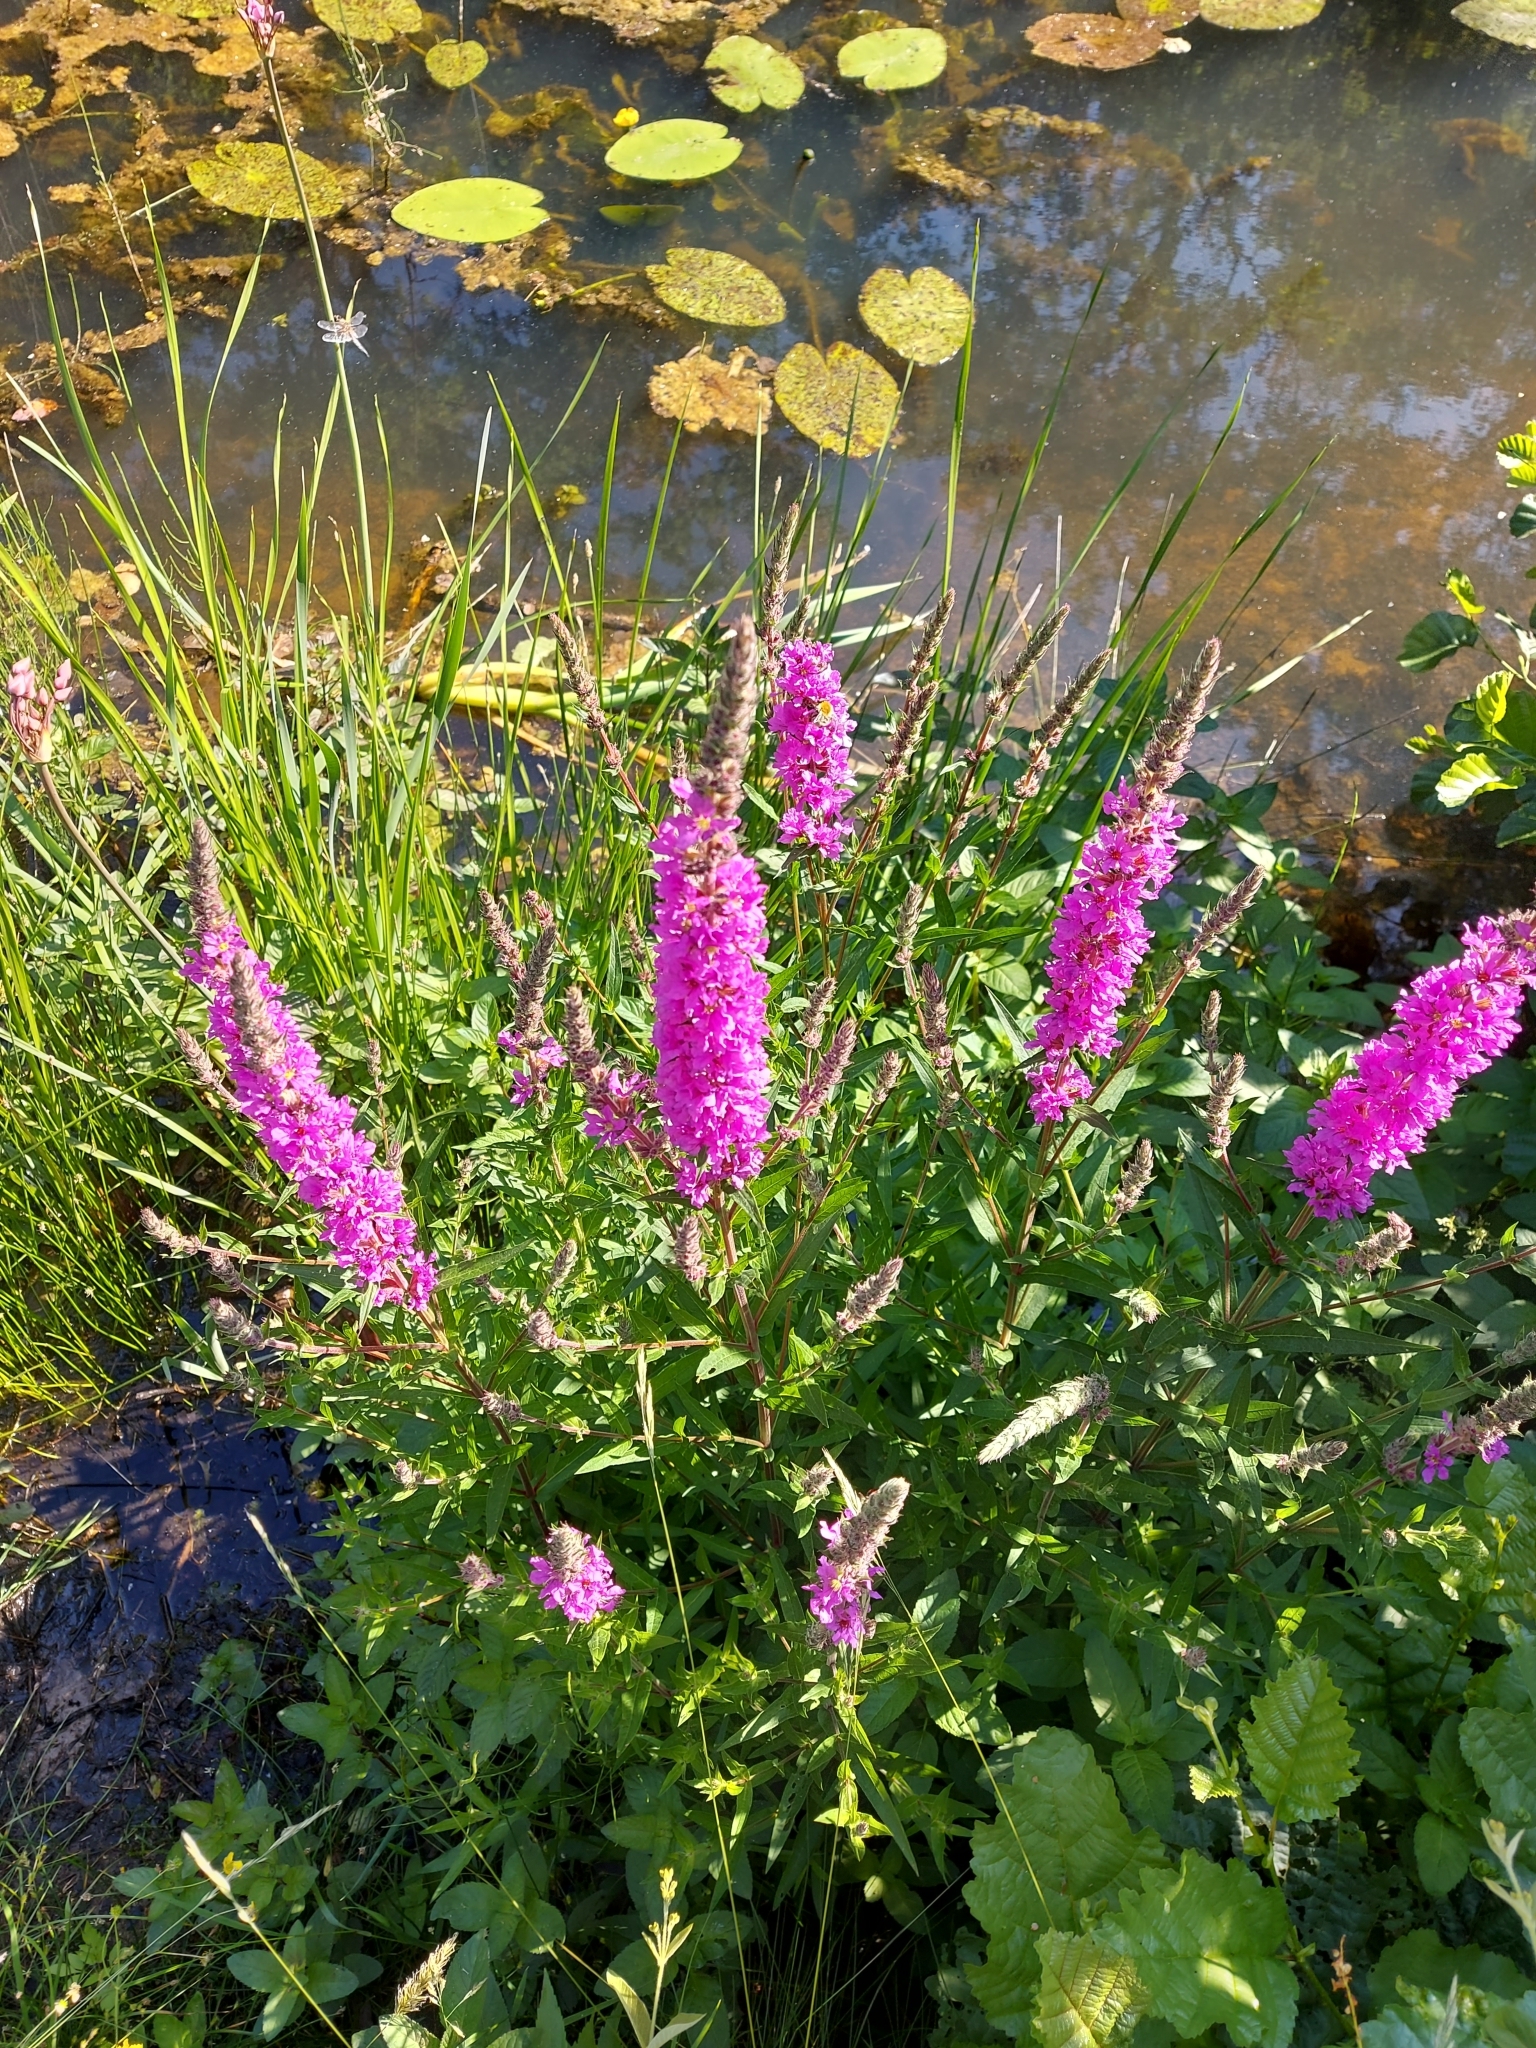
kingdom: Plantae
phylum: Tracheophyta
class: Magnoliopsida
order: Myrtales
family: Lythraceae
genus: Lythrum
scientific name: Lythrum salicaria
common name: Purple loosestrife
